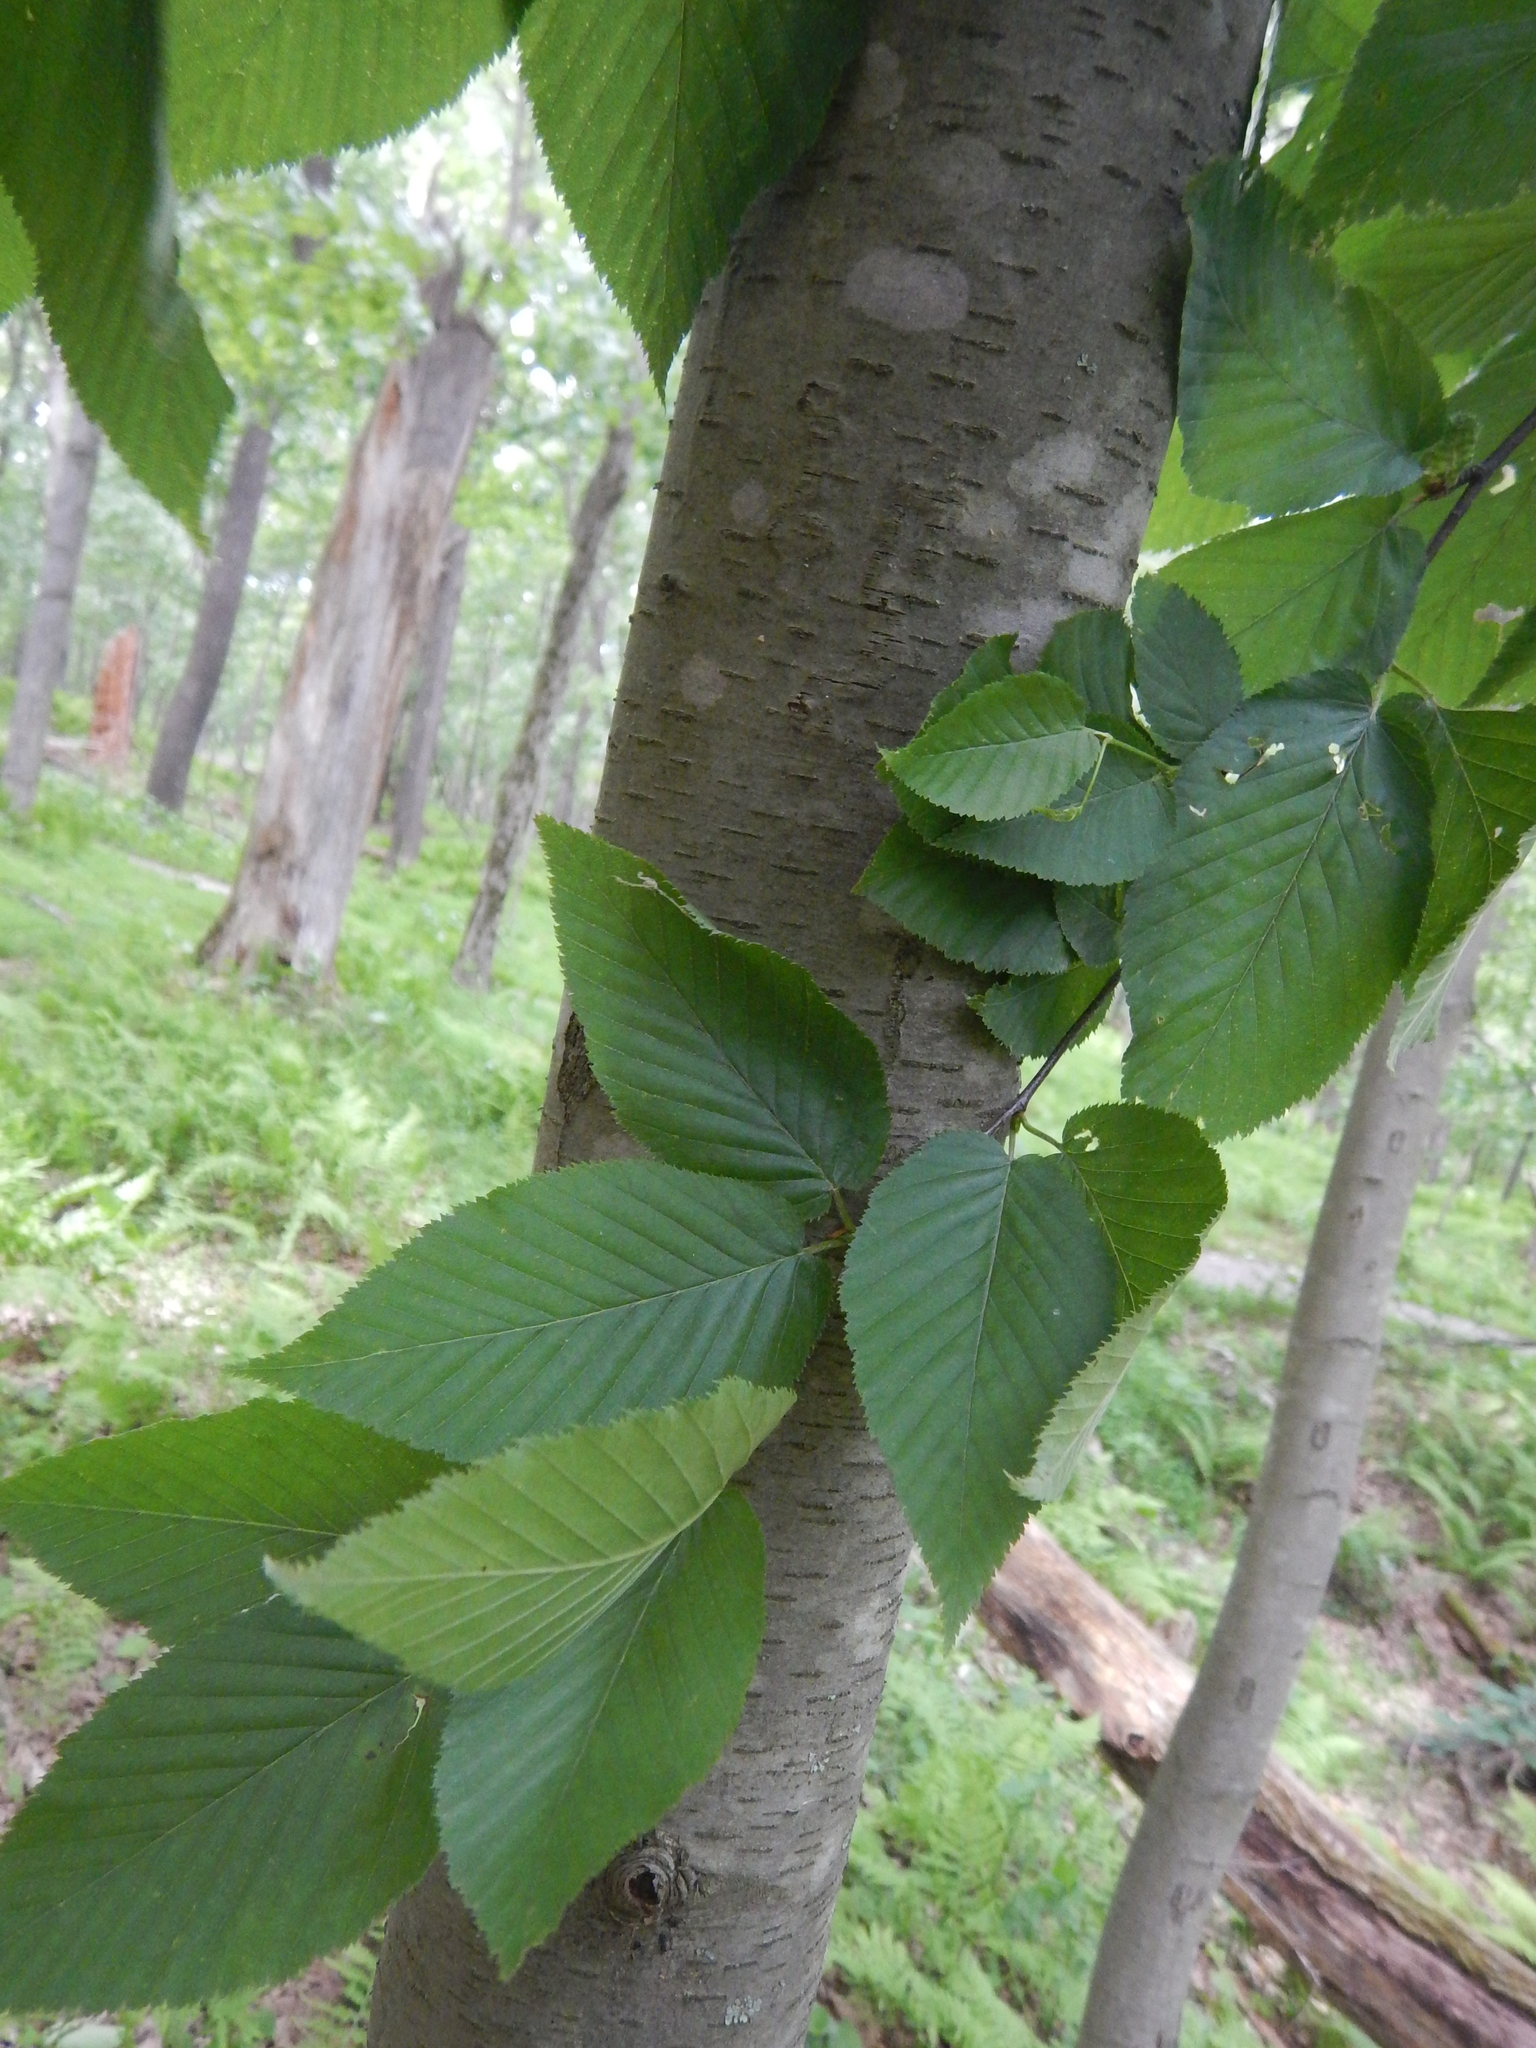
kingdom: Plantae
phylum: Tracheophyta
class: Magnoliopsida
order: Fagales
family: Betulaceae
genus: Betula
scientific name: Betula lenta
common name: Black birch
